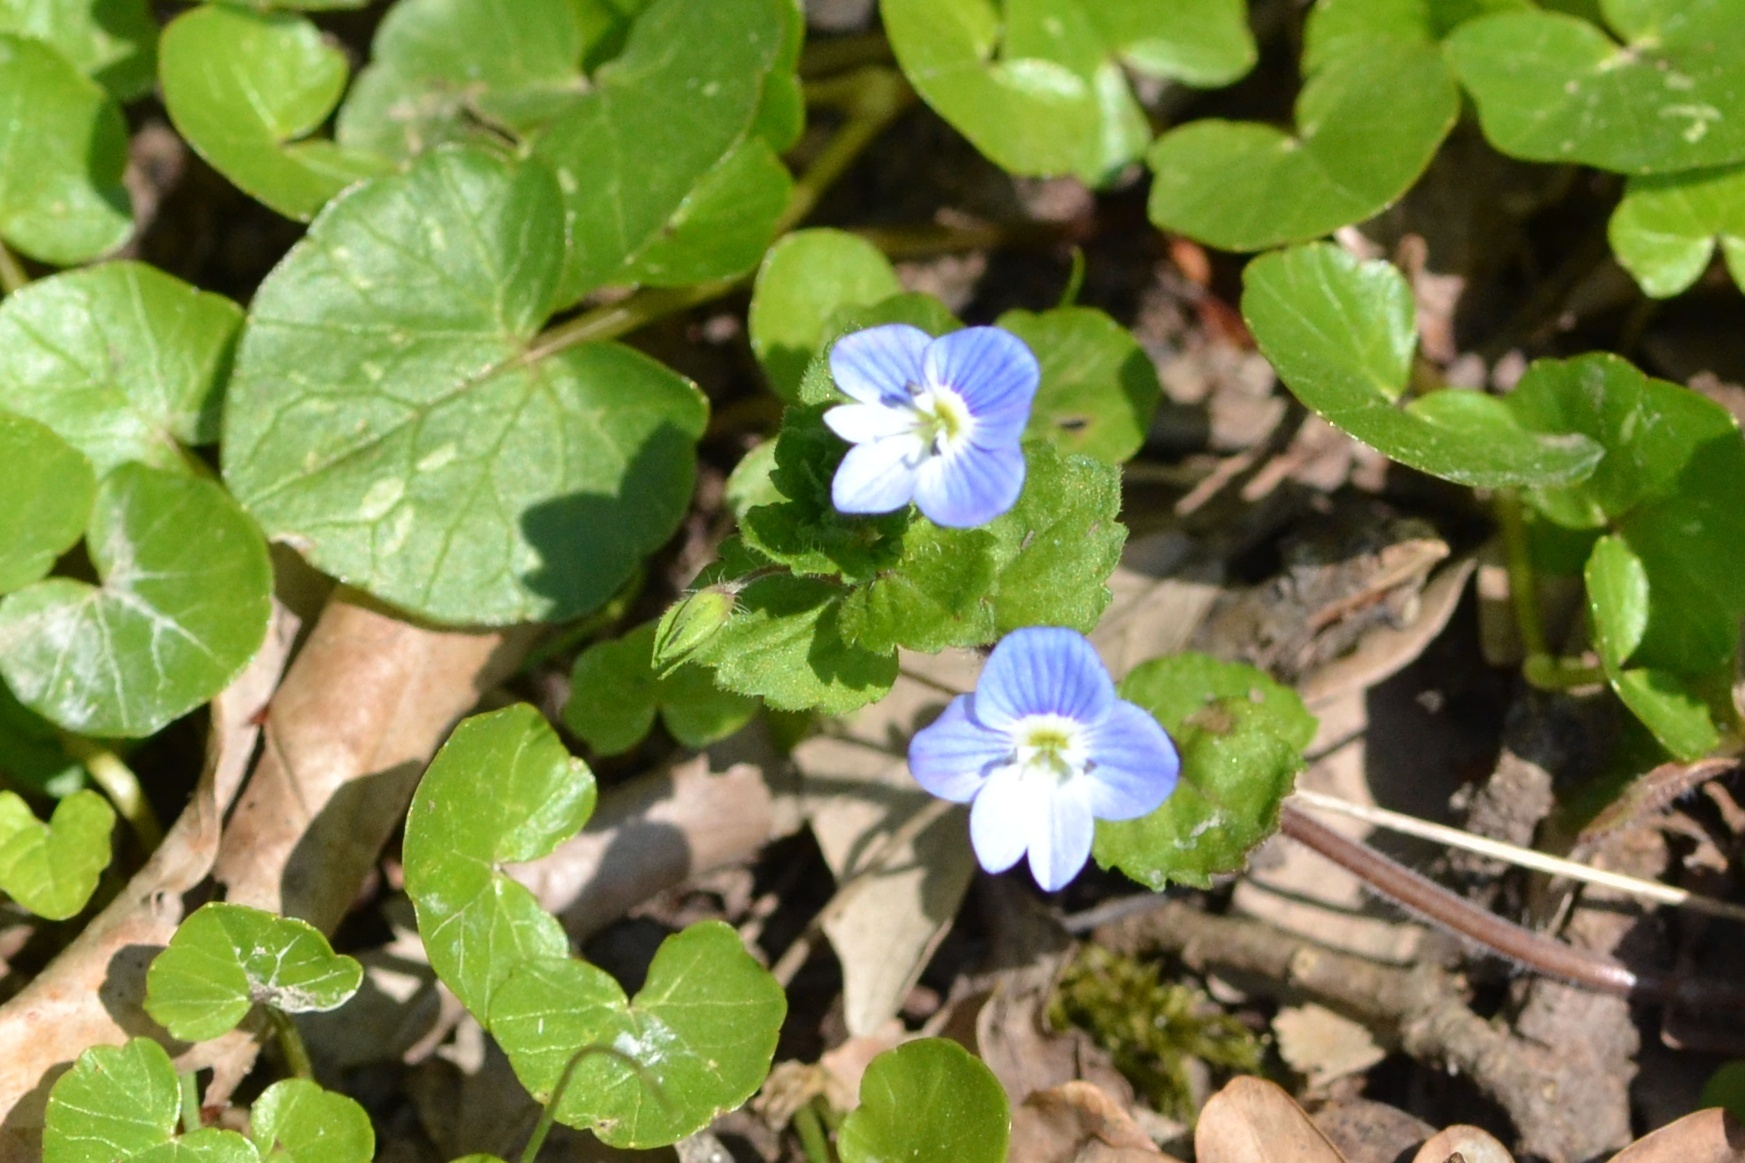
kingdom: Plantae
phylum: Tracheophyta
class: Magnoliopsida
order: Lamiales
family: Plantaginaceae
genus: Veronica
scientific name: Veronica persica
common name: Common field-speedwell
